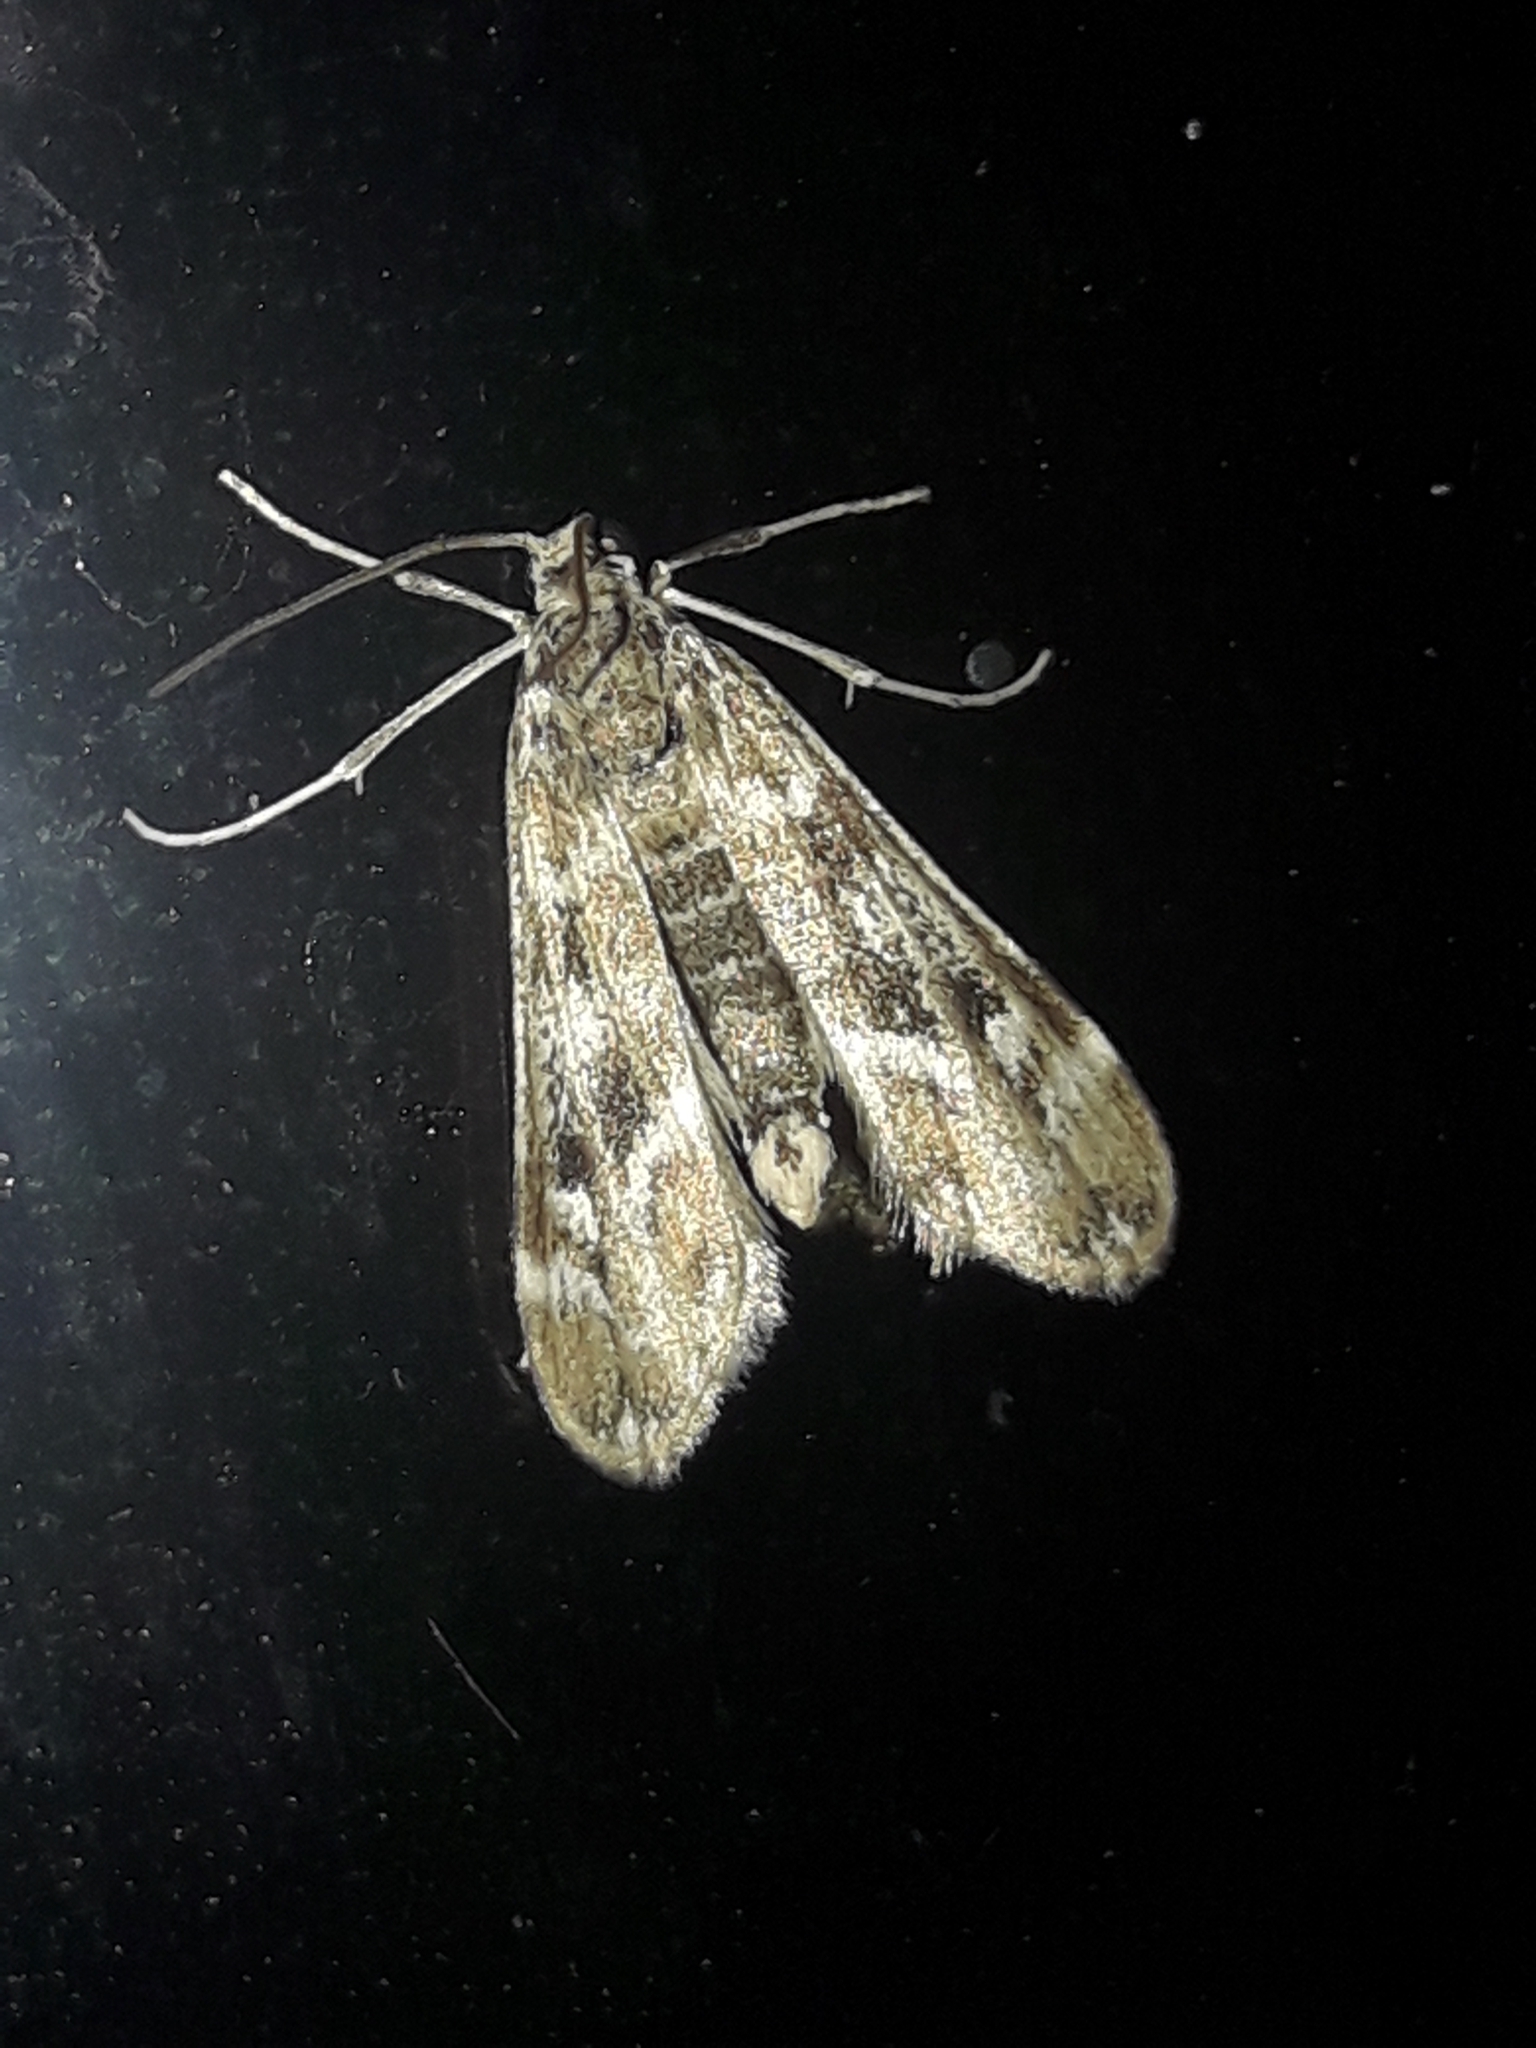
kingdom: Animalia
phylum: Arthropoda
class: Insecta
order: Lepidoptera
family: Crambidae
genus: Hygraula
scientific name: Hygraula nitens
